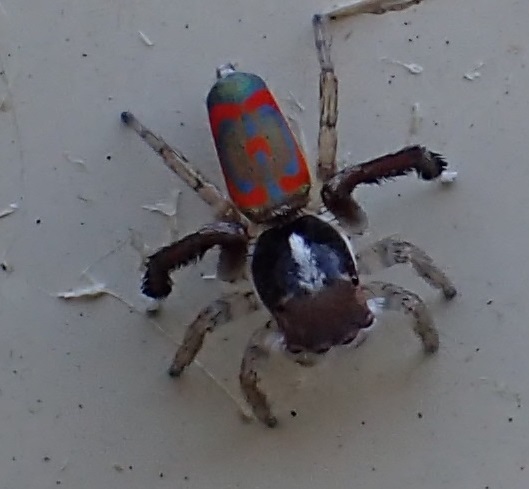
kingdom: Animalia
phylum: Arthropoda
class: Arachnida
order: Araneae
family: Salticidae
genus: Maratus
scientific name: Maratus pavonis
